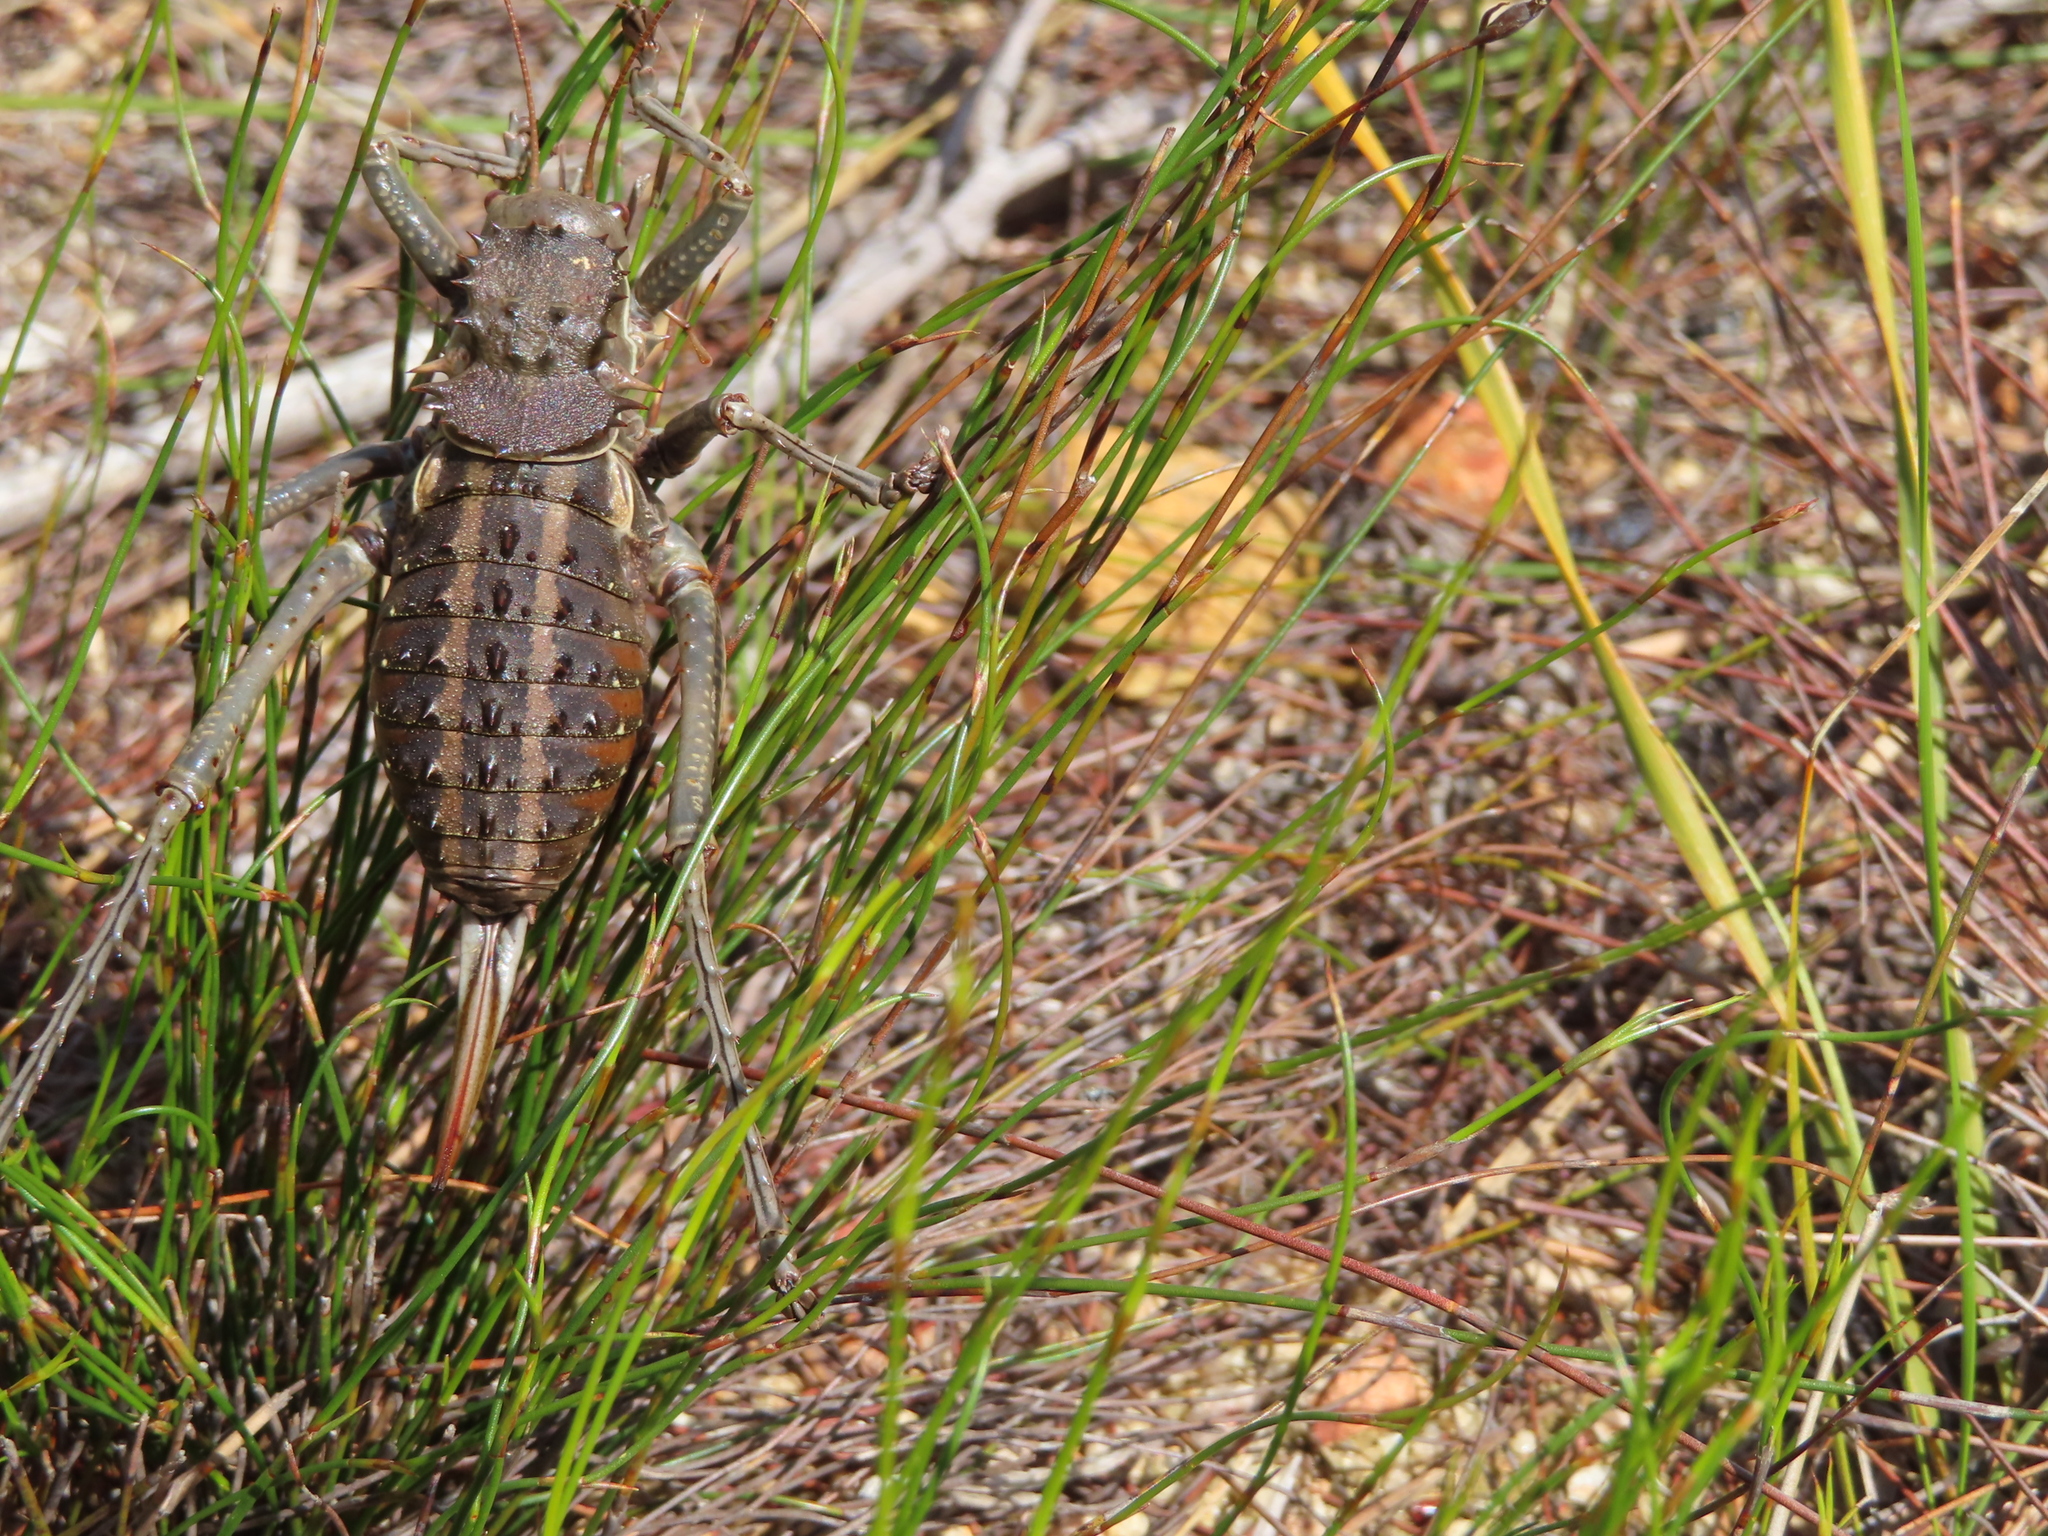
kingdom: Animalia
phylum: Arthropoda
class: Insecta
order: Orthoptera
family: Tettigoniidae
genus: Hetrodes
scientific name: Hetrodes pupus
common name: Koringkriek
